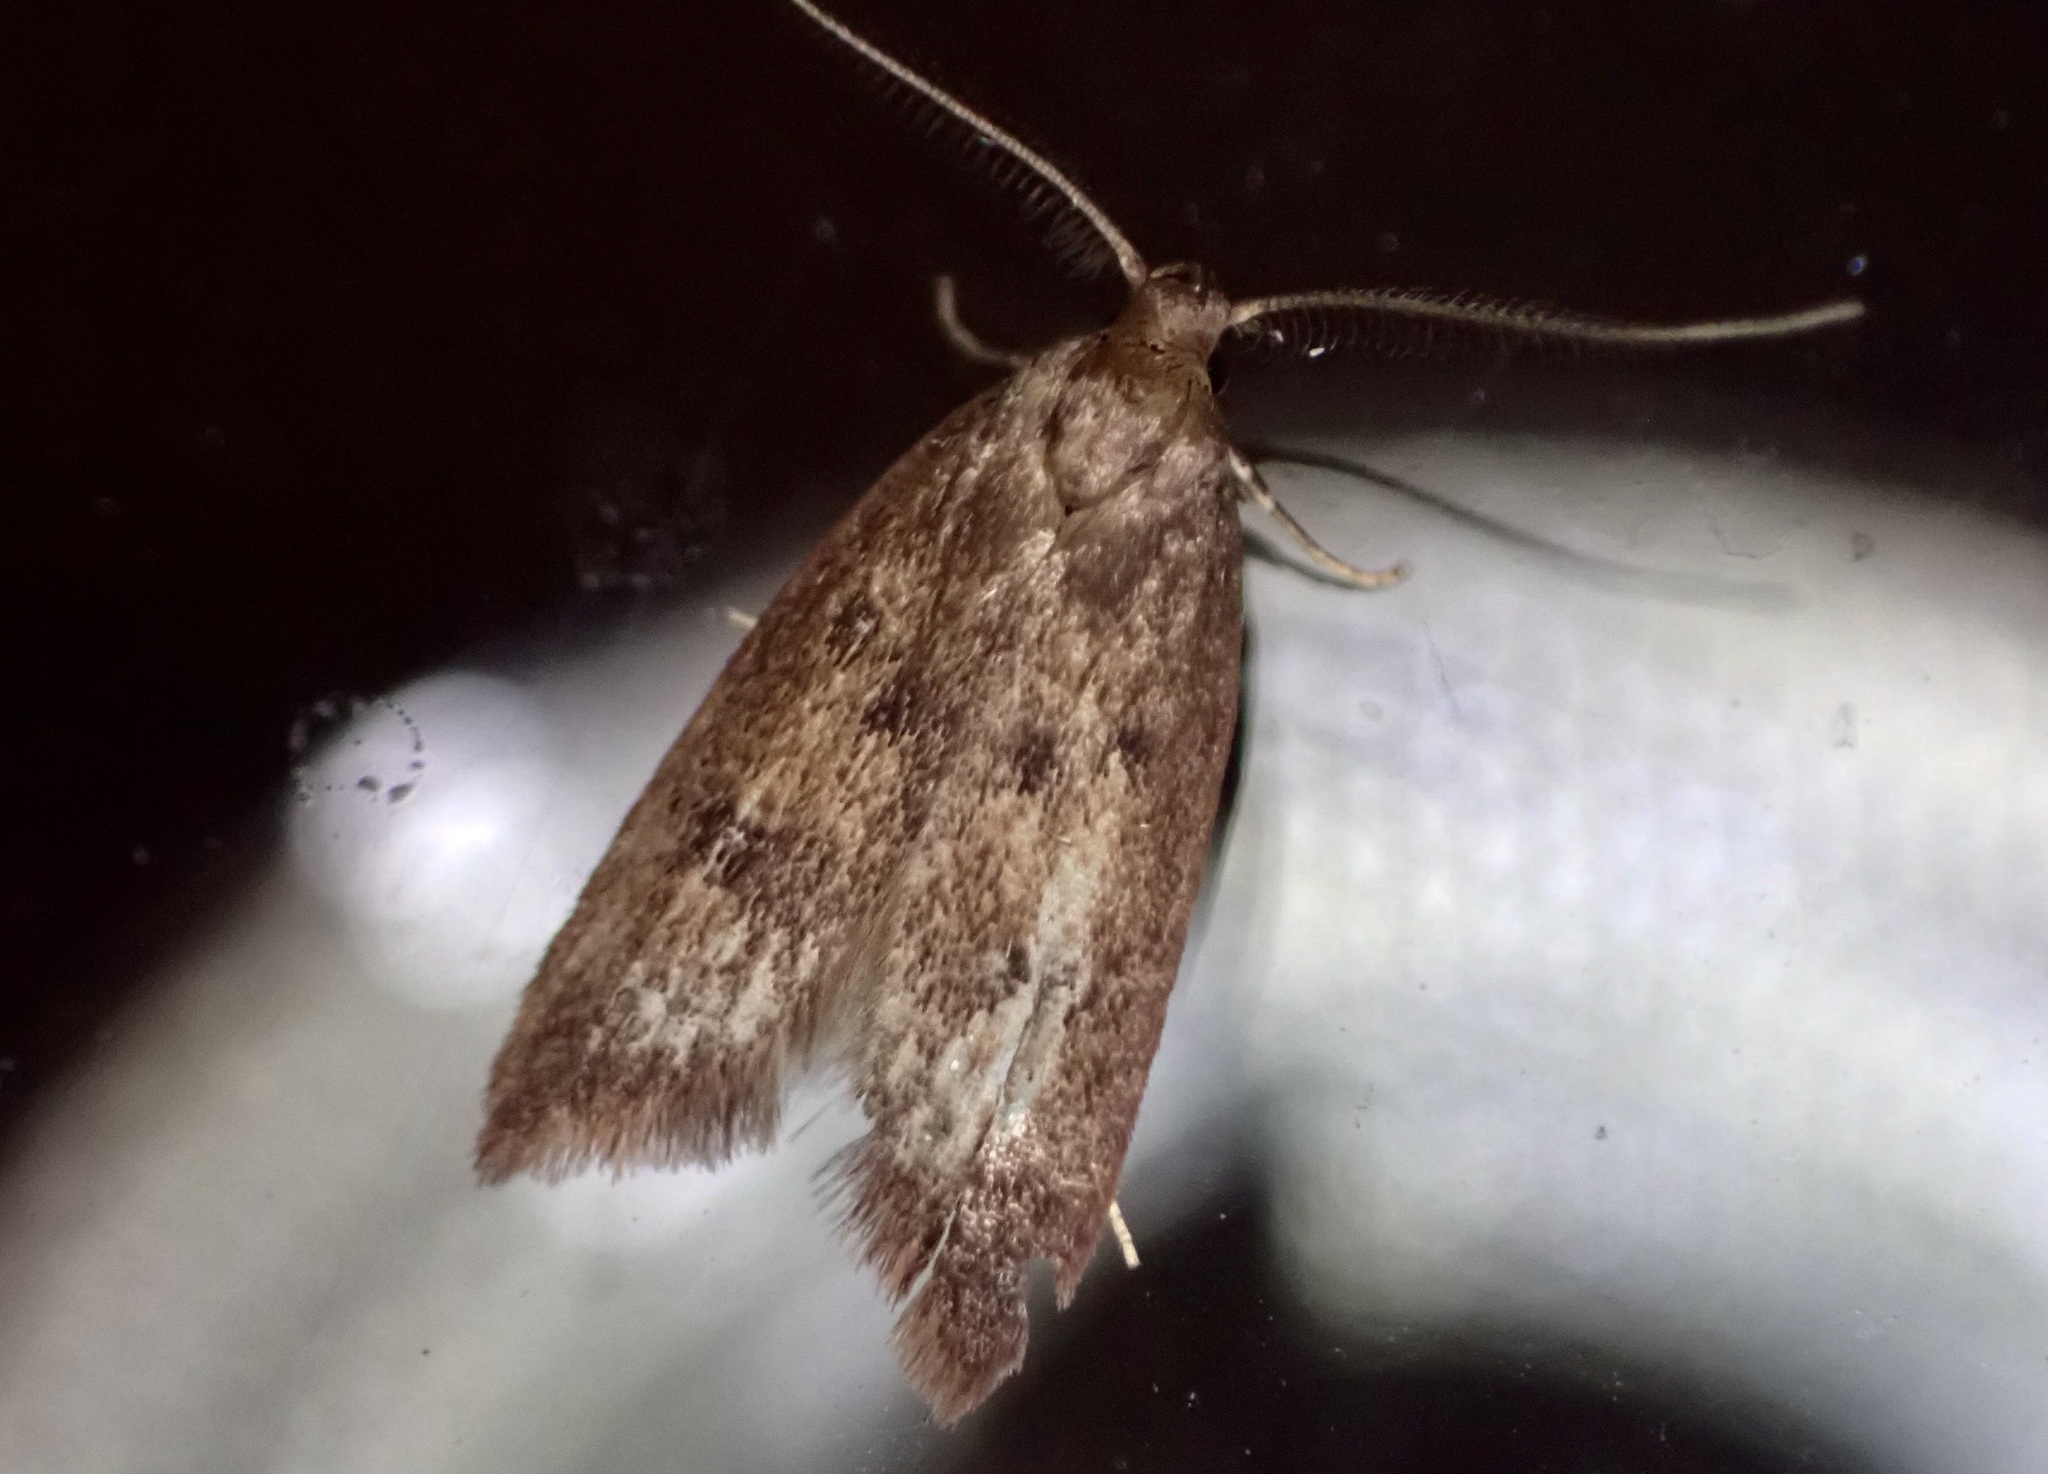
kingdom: Animalia
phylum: Arthropoda
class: Insecta
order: Lepidoptera
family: Oecophoridae
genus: Tachystola
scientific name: Tachystola acroxantha
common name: Ruddy streak
